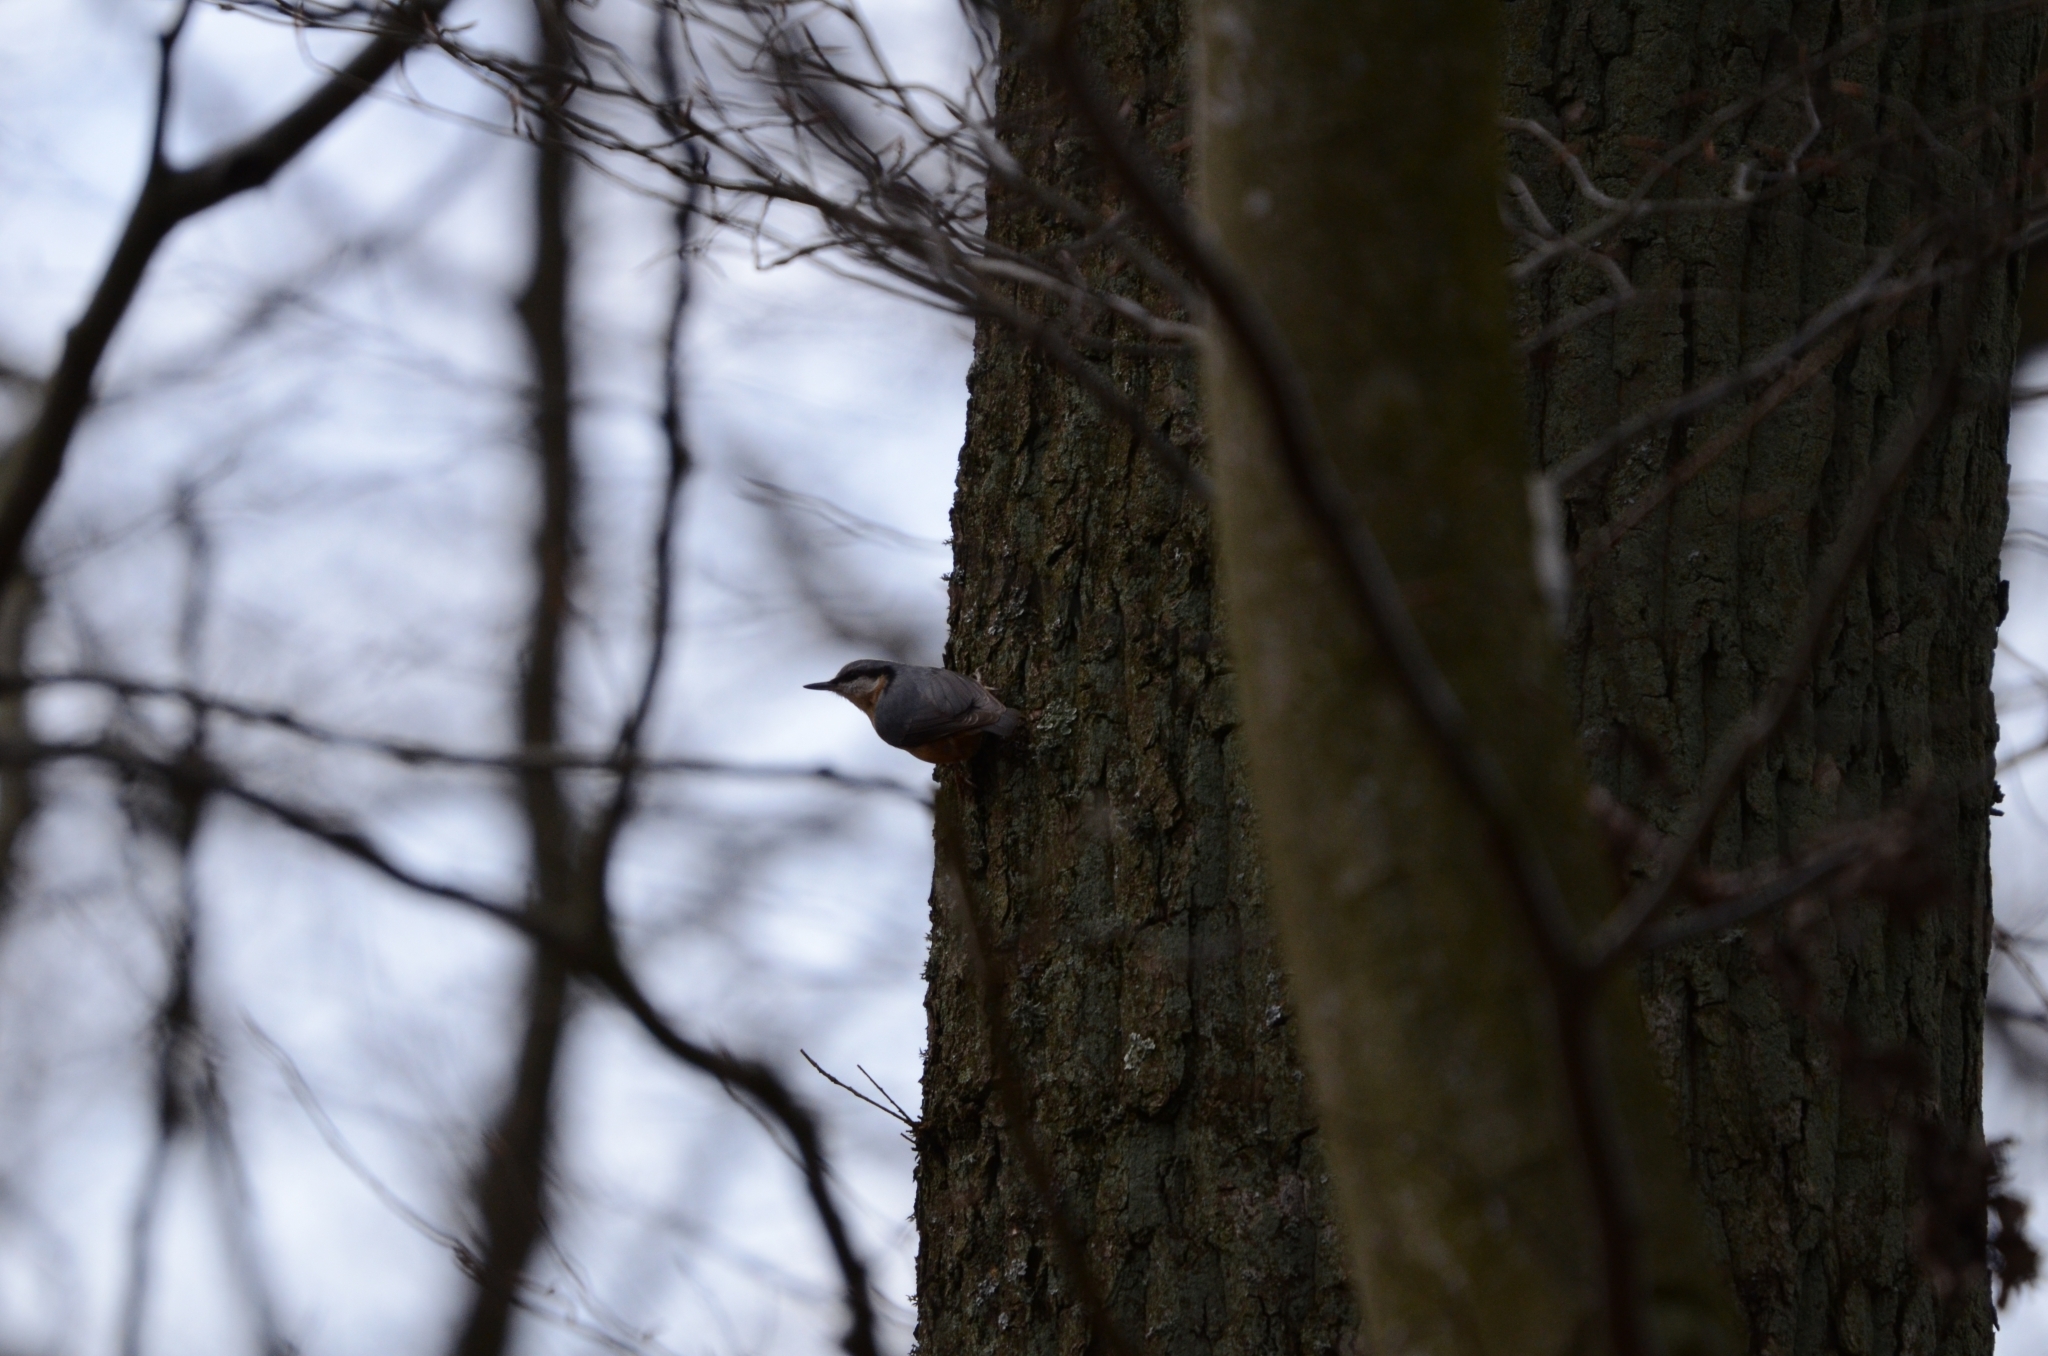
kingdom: Animalia
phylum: Chordata
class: Aves
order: Passeriformes
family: Sittidae
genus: Sitta
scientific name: Sitta europaea
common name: Eurasian nuthatch
